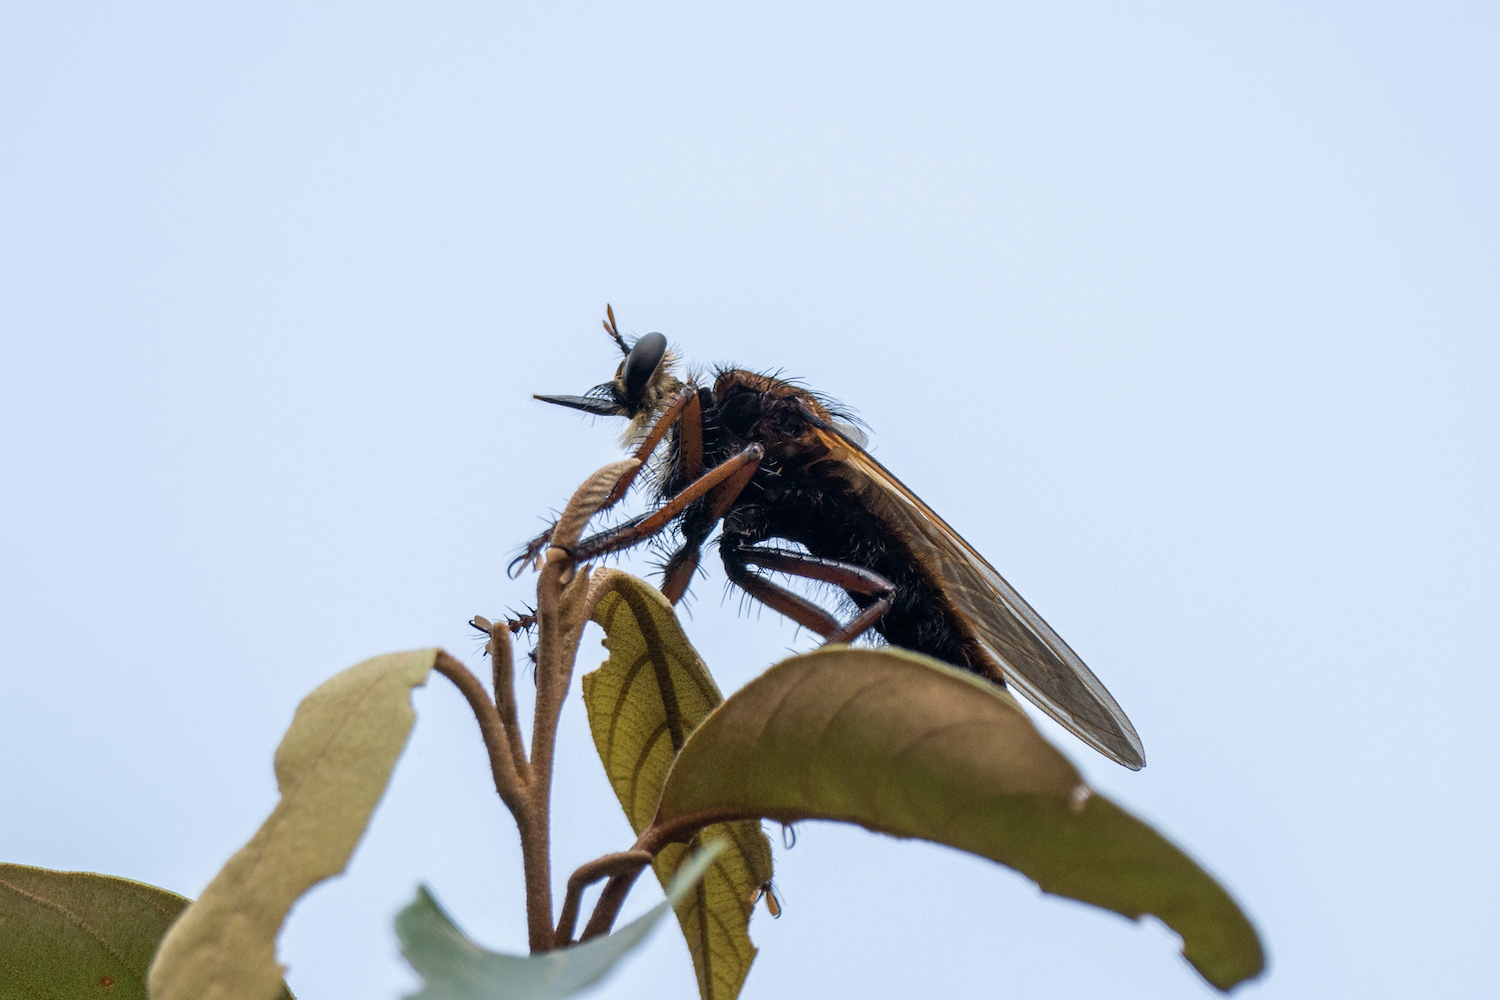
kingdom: Animalia
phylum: Arthropoda
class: Insecta
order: Diptera
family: Asilidae
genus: Microstylum
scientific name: Microstylum dux
